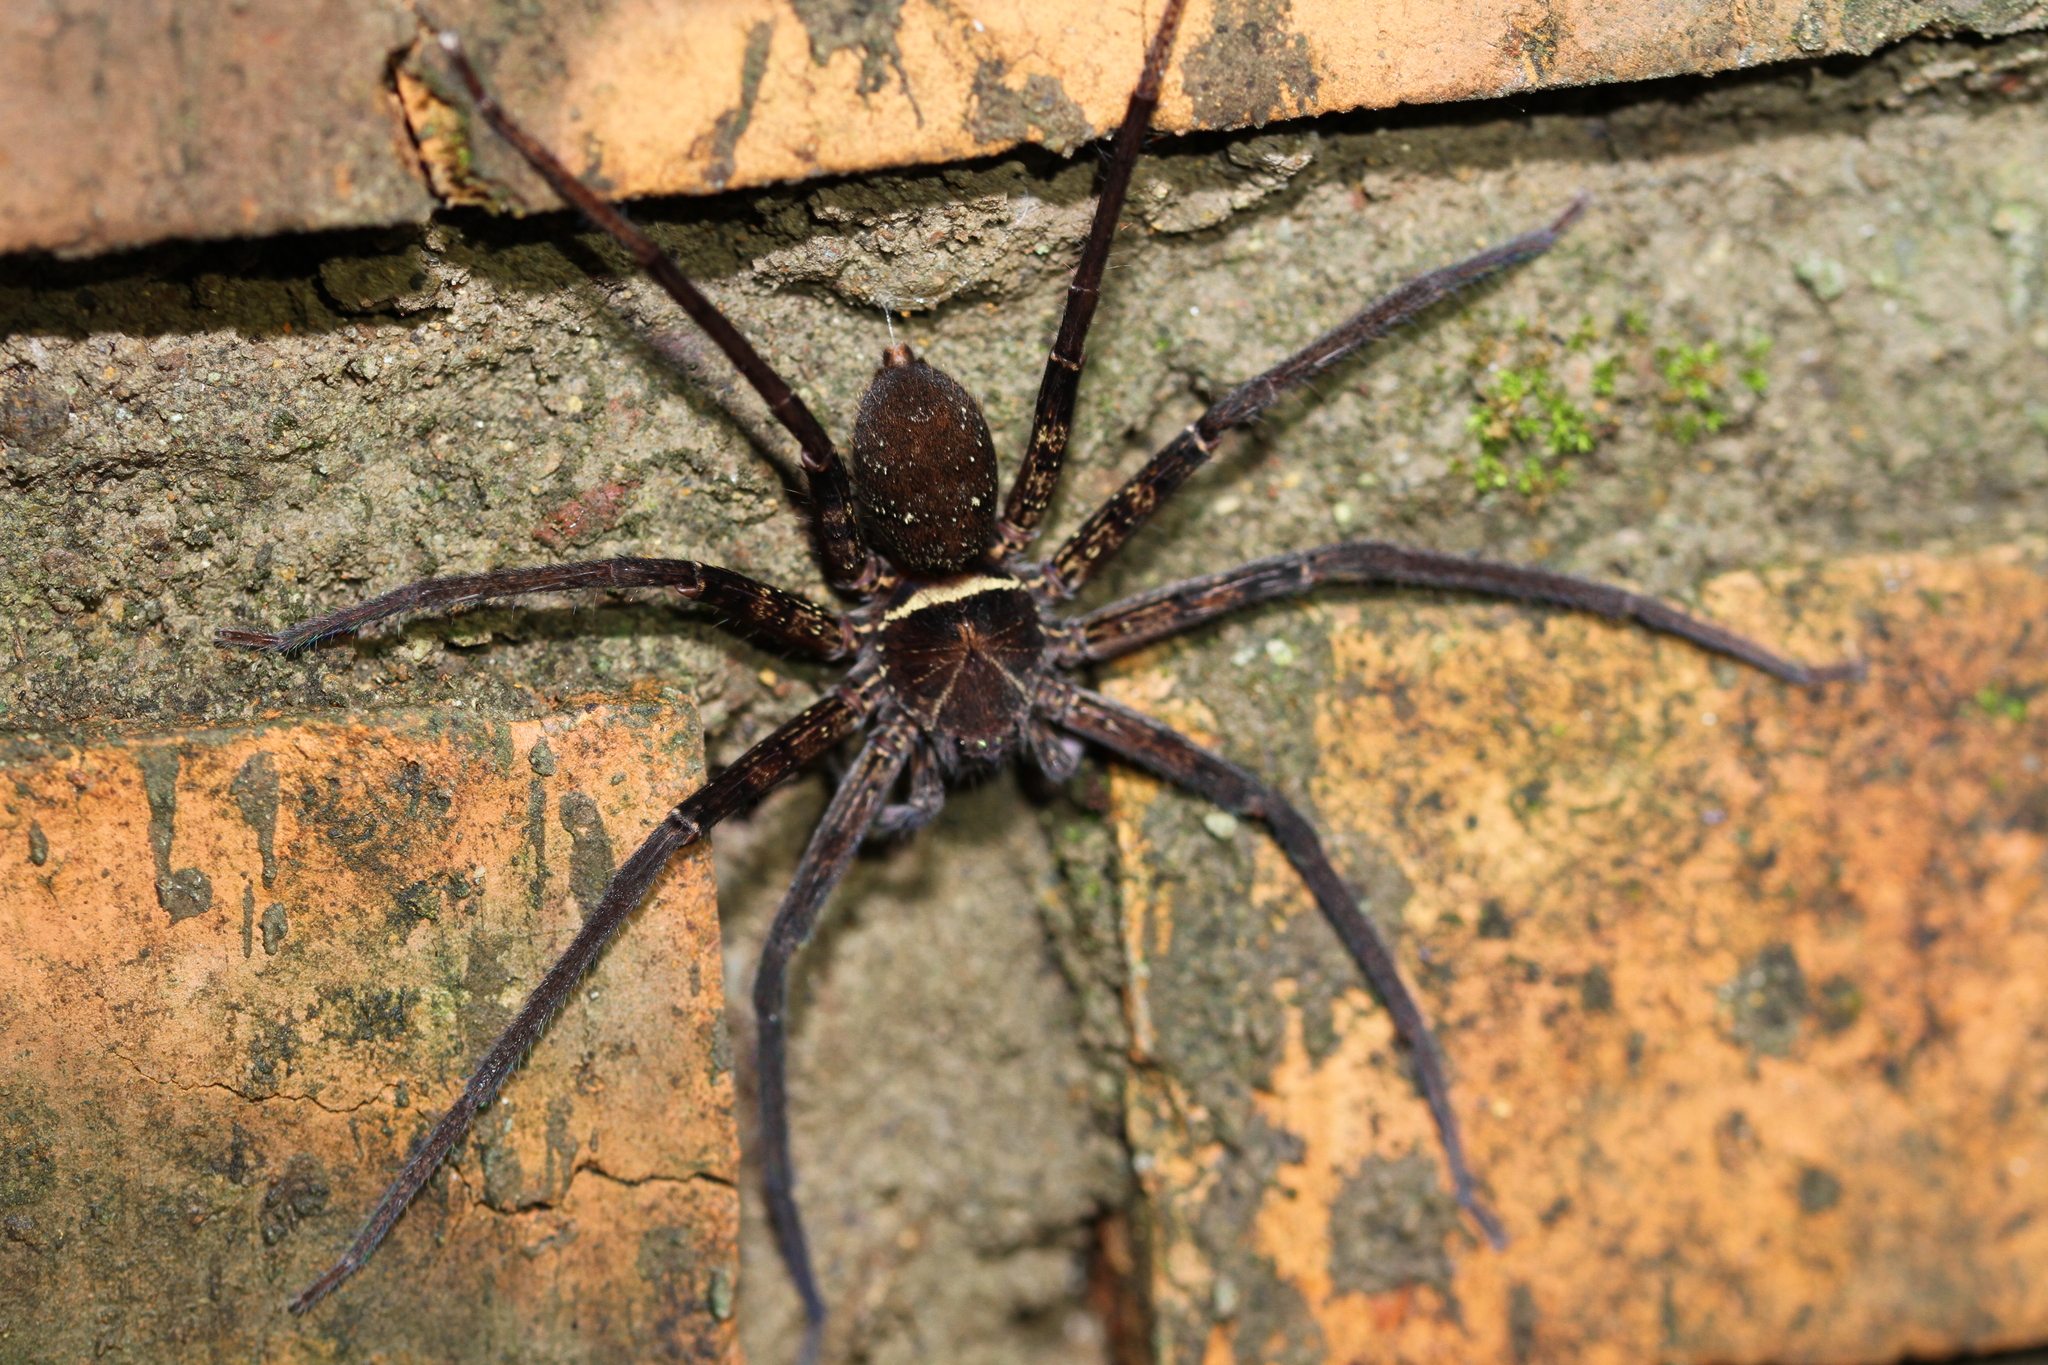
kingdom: Animalia
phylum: Arthropoda
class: Arachnida
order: Araneae
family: Sparassidae
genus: Heteropoda
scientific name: Heteropoda tetrica
